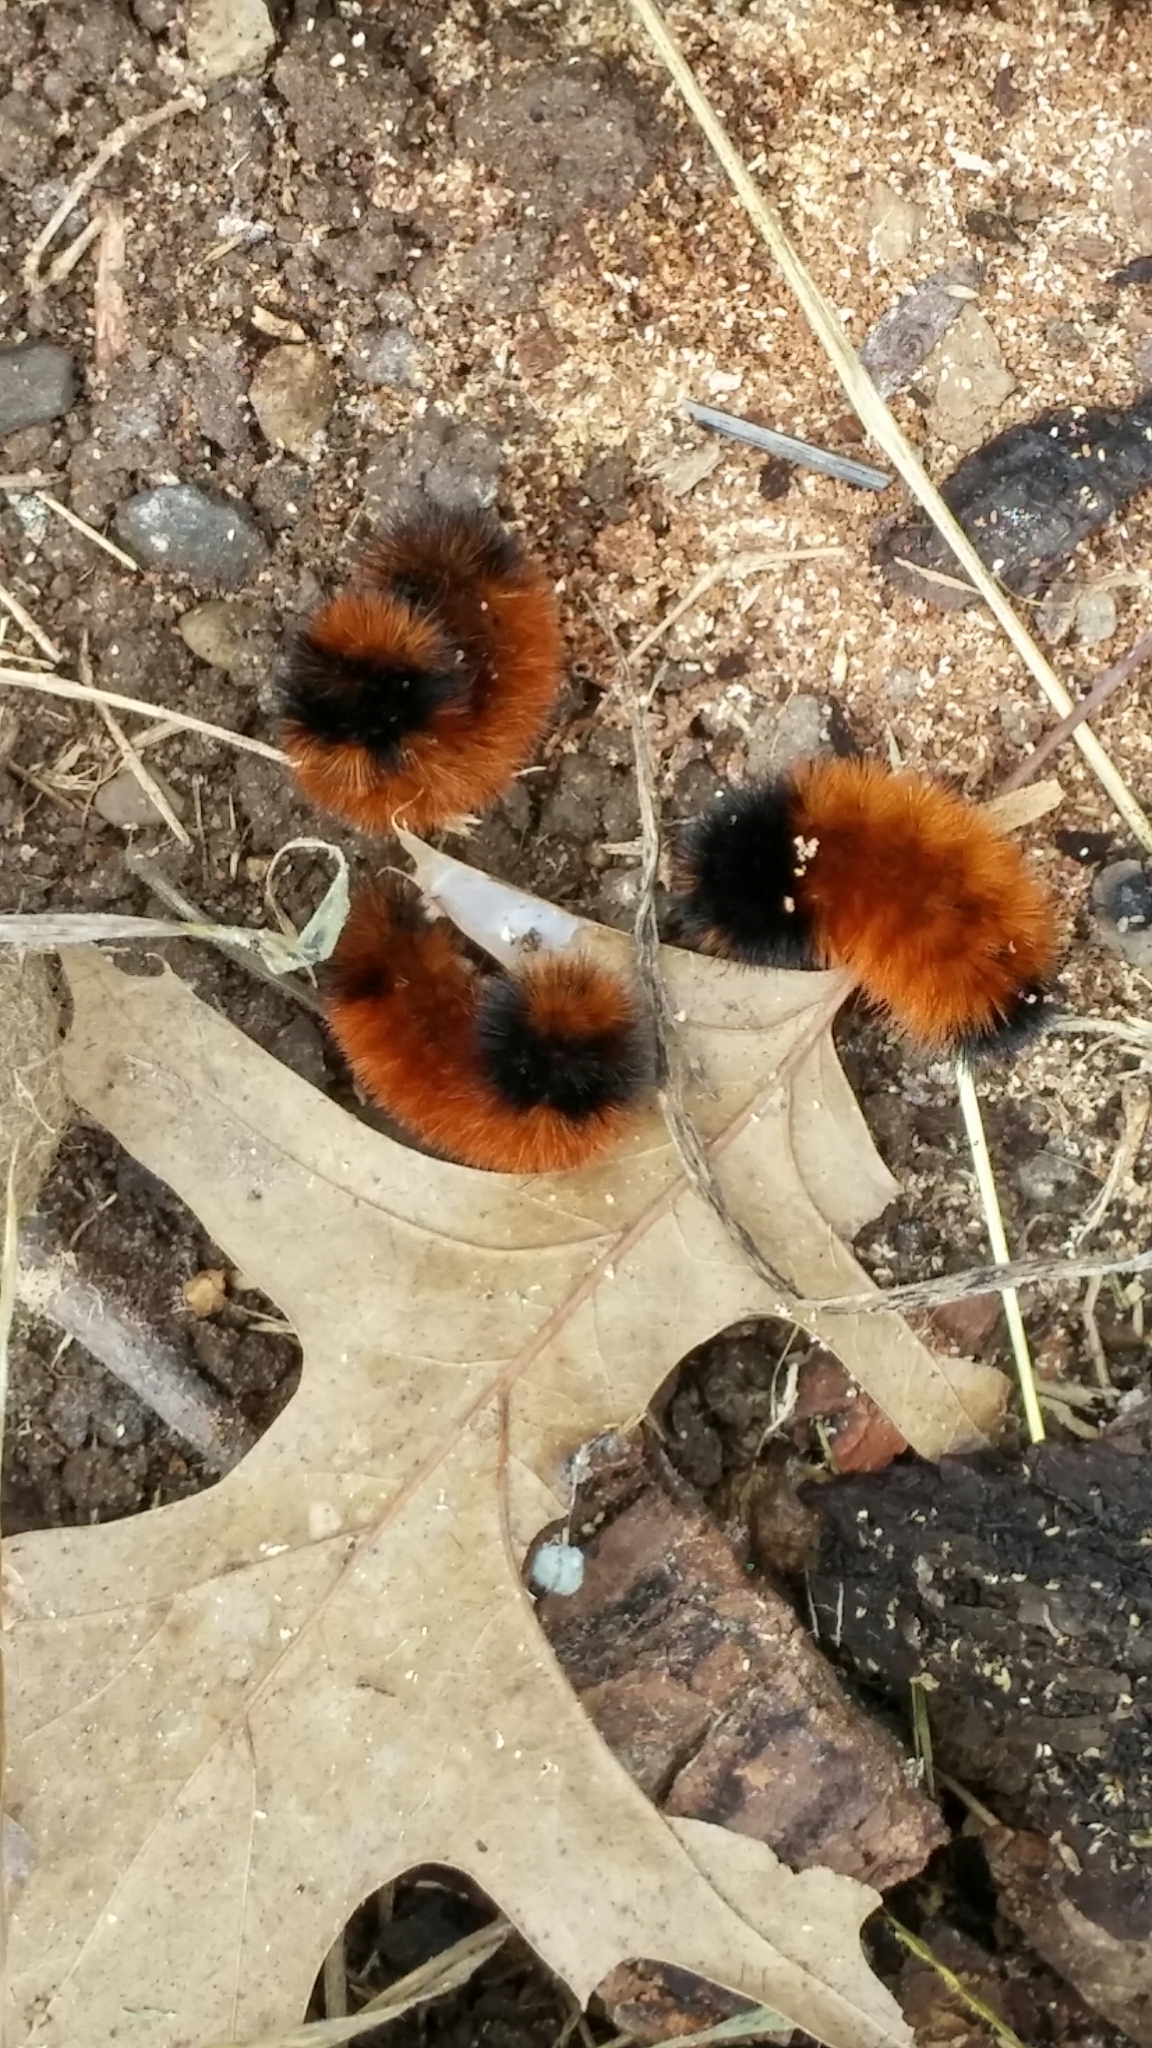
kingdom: Animalia
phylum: Arthropoda
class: Insecta
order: Lepidoptera
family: Erebidae
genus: Pyrrharctia
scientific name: Pyrrharctia isabella
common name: Isabella tiger moth
